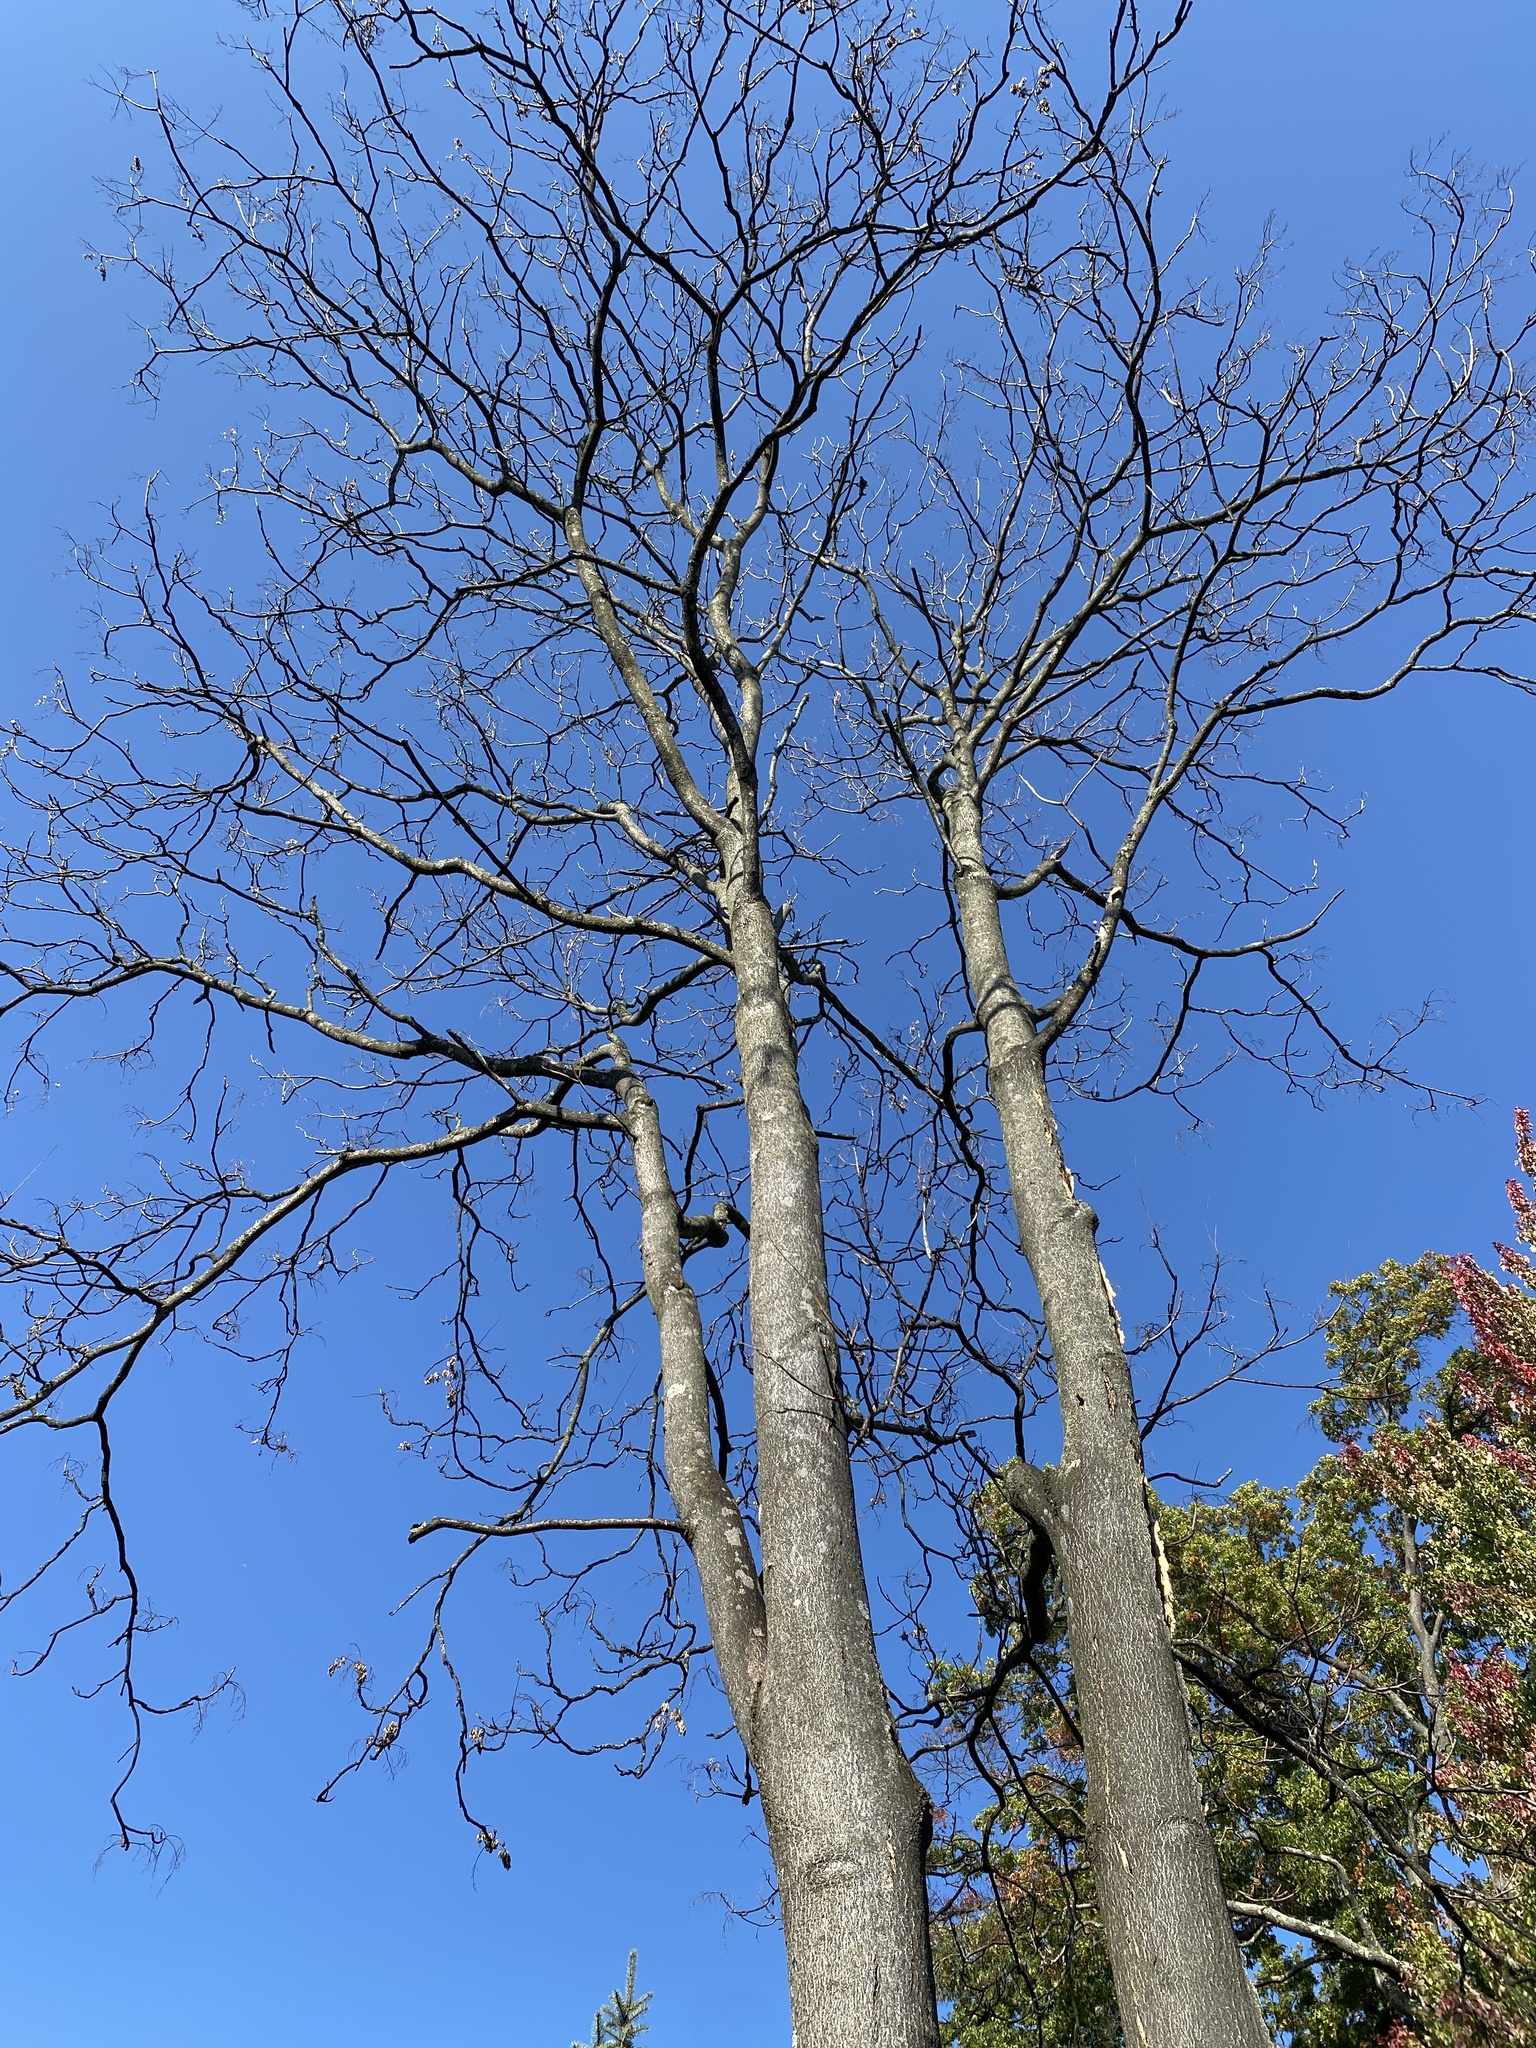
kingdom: Plantae
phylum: Tracheophyta
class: Magnoliopsida
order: Sapindales
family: Simaroubaceae
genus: Ailanthus
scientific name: Ailanthus altissima
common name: Tree-of-heaven
